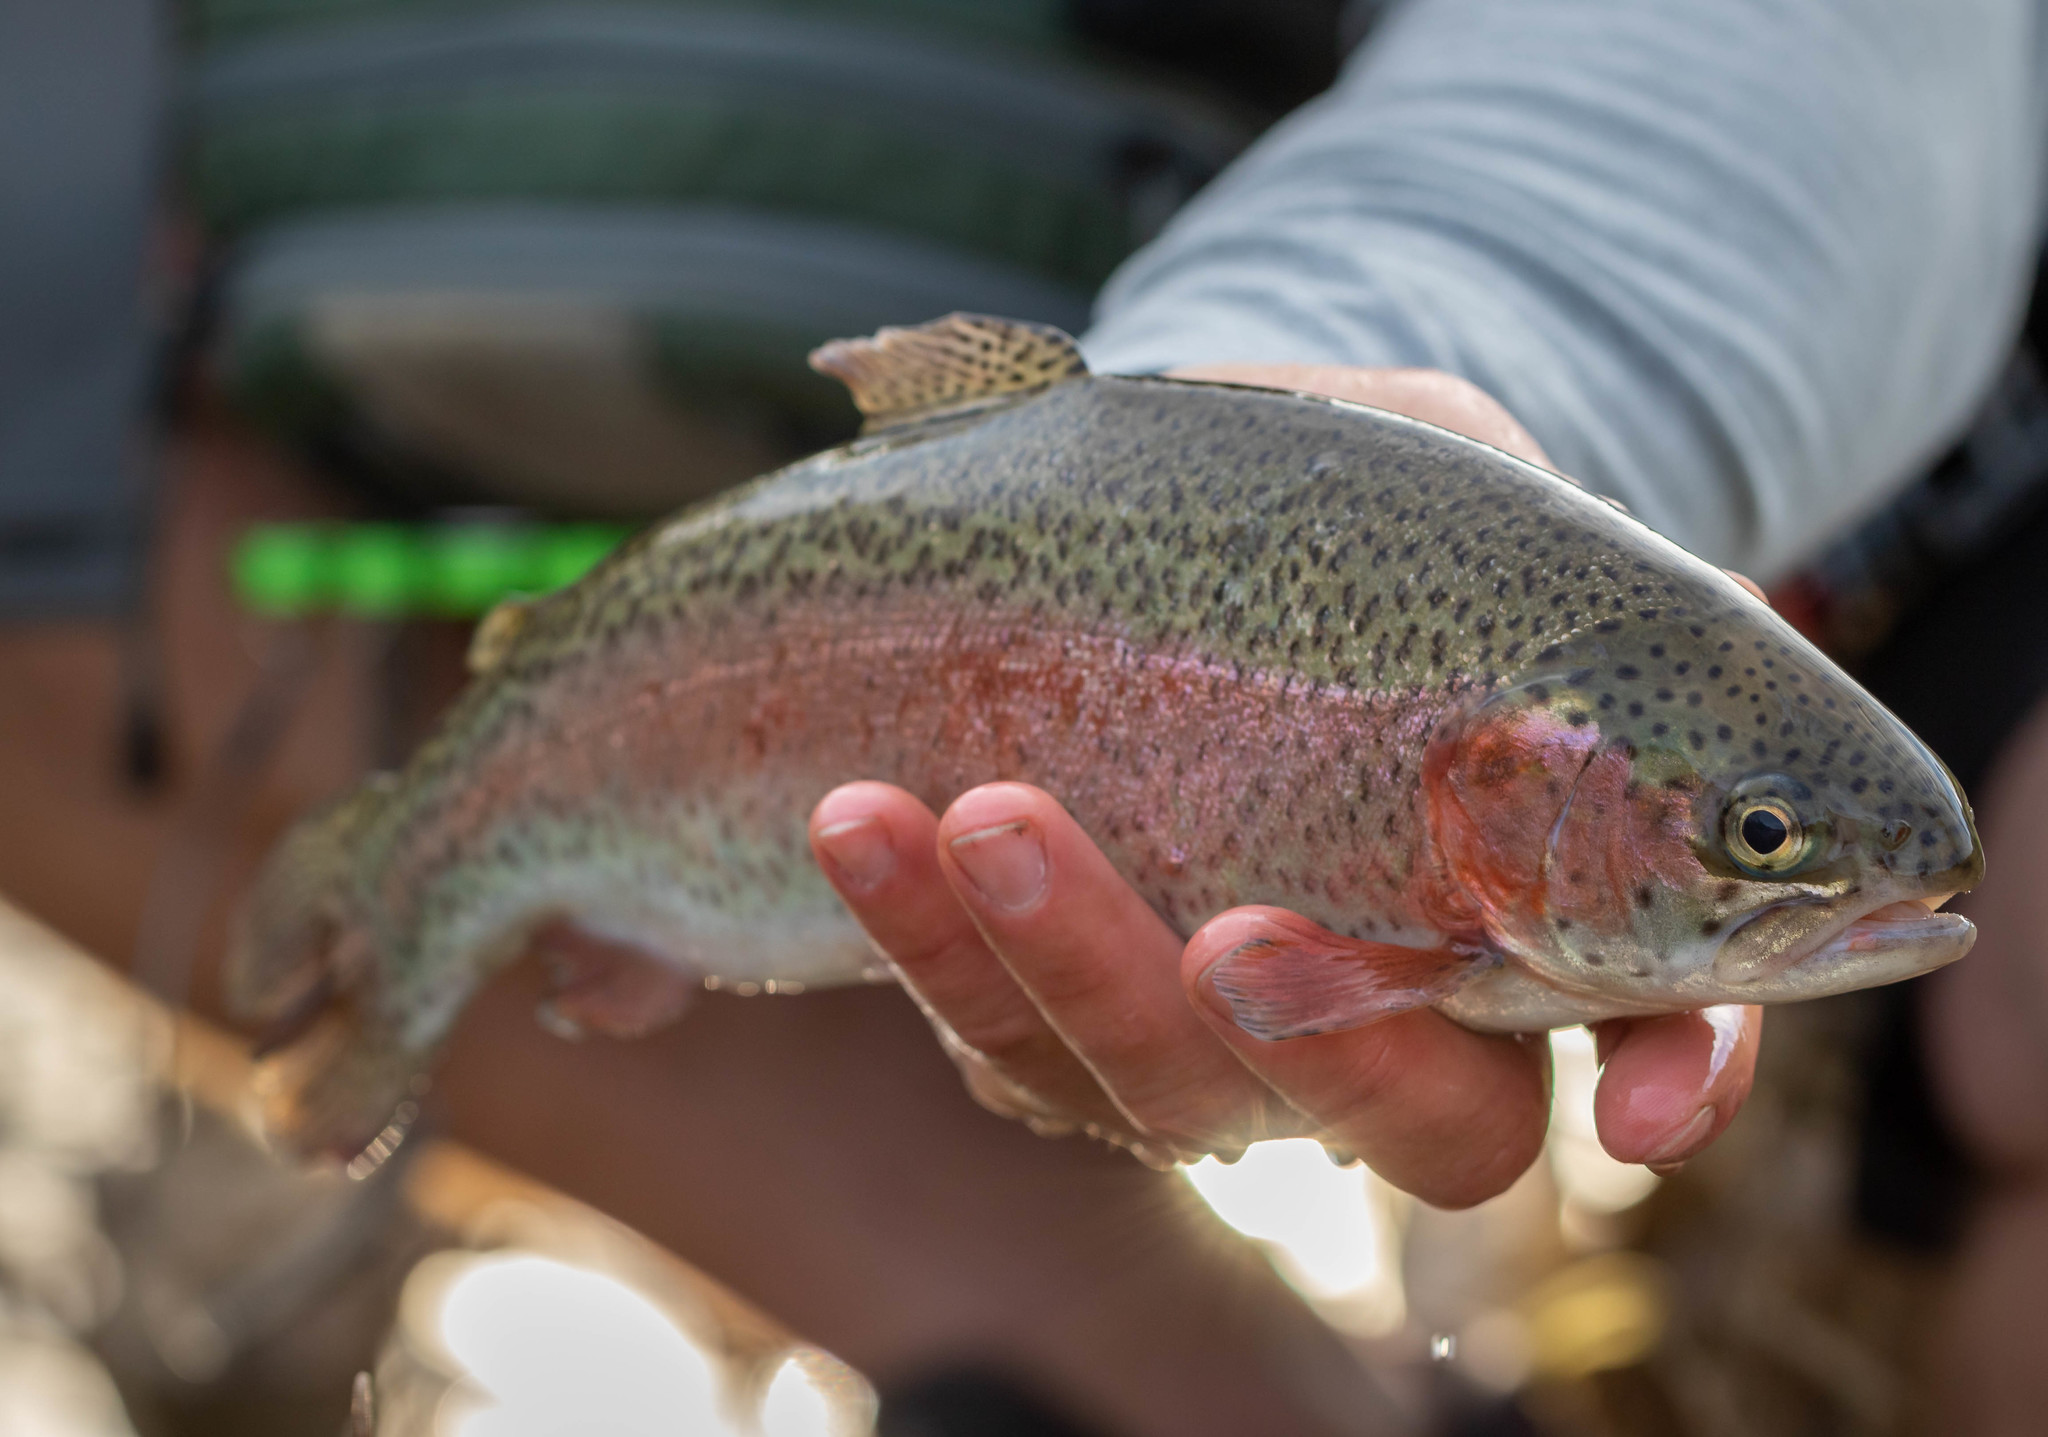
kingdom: Animalia
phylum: Chordata
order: Salmoniformes
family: Salmonidae
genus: Oncorhynchus
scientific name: Oncorhynchus mykiss
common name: Rainbow trout
